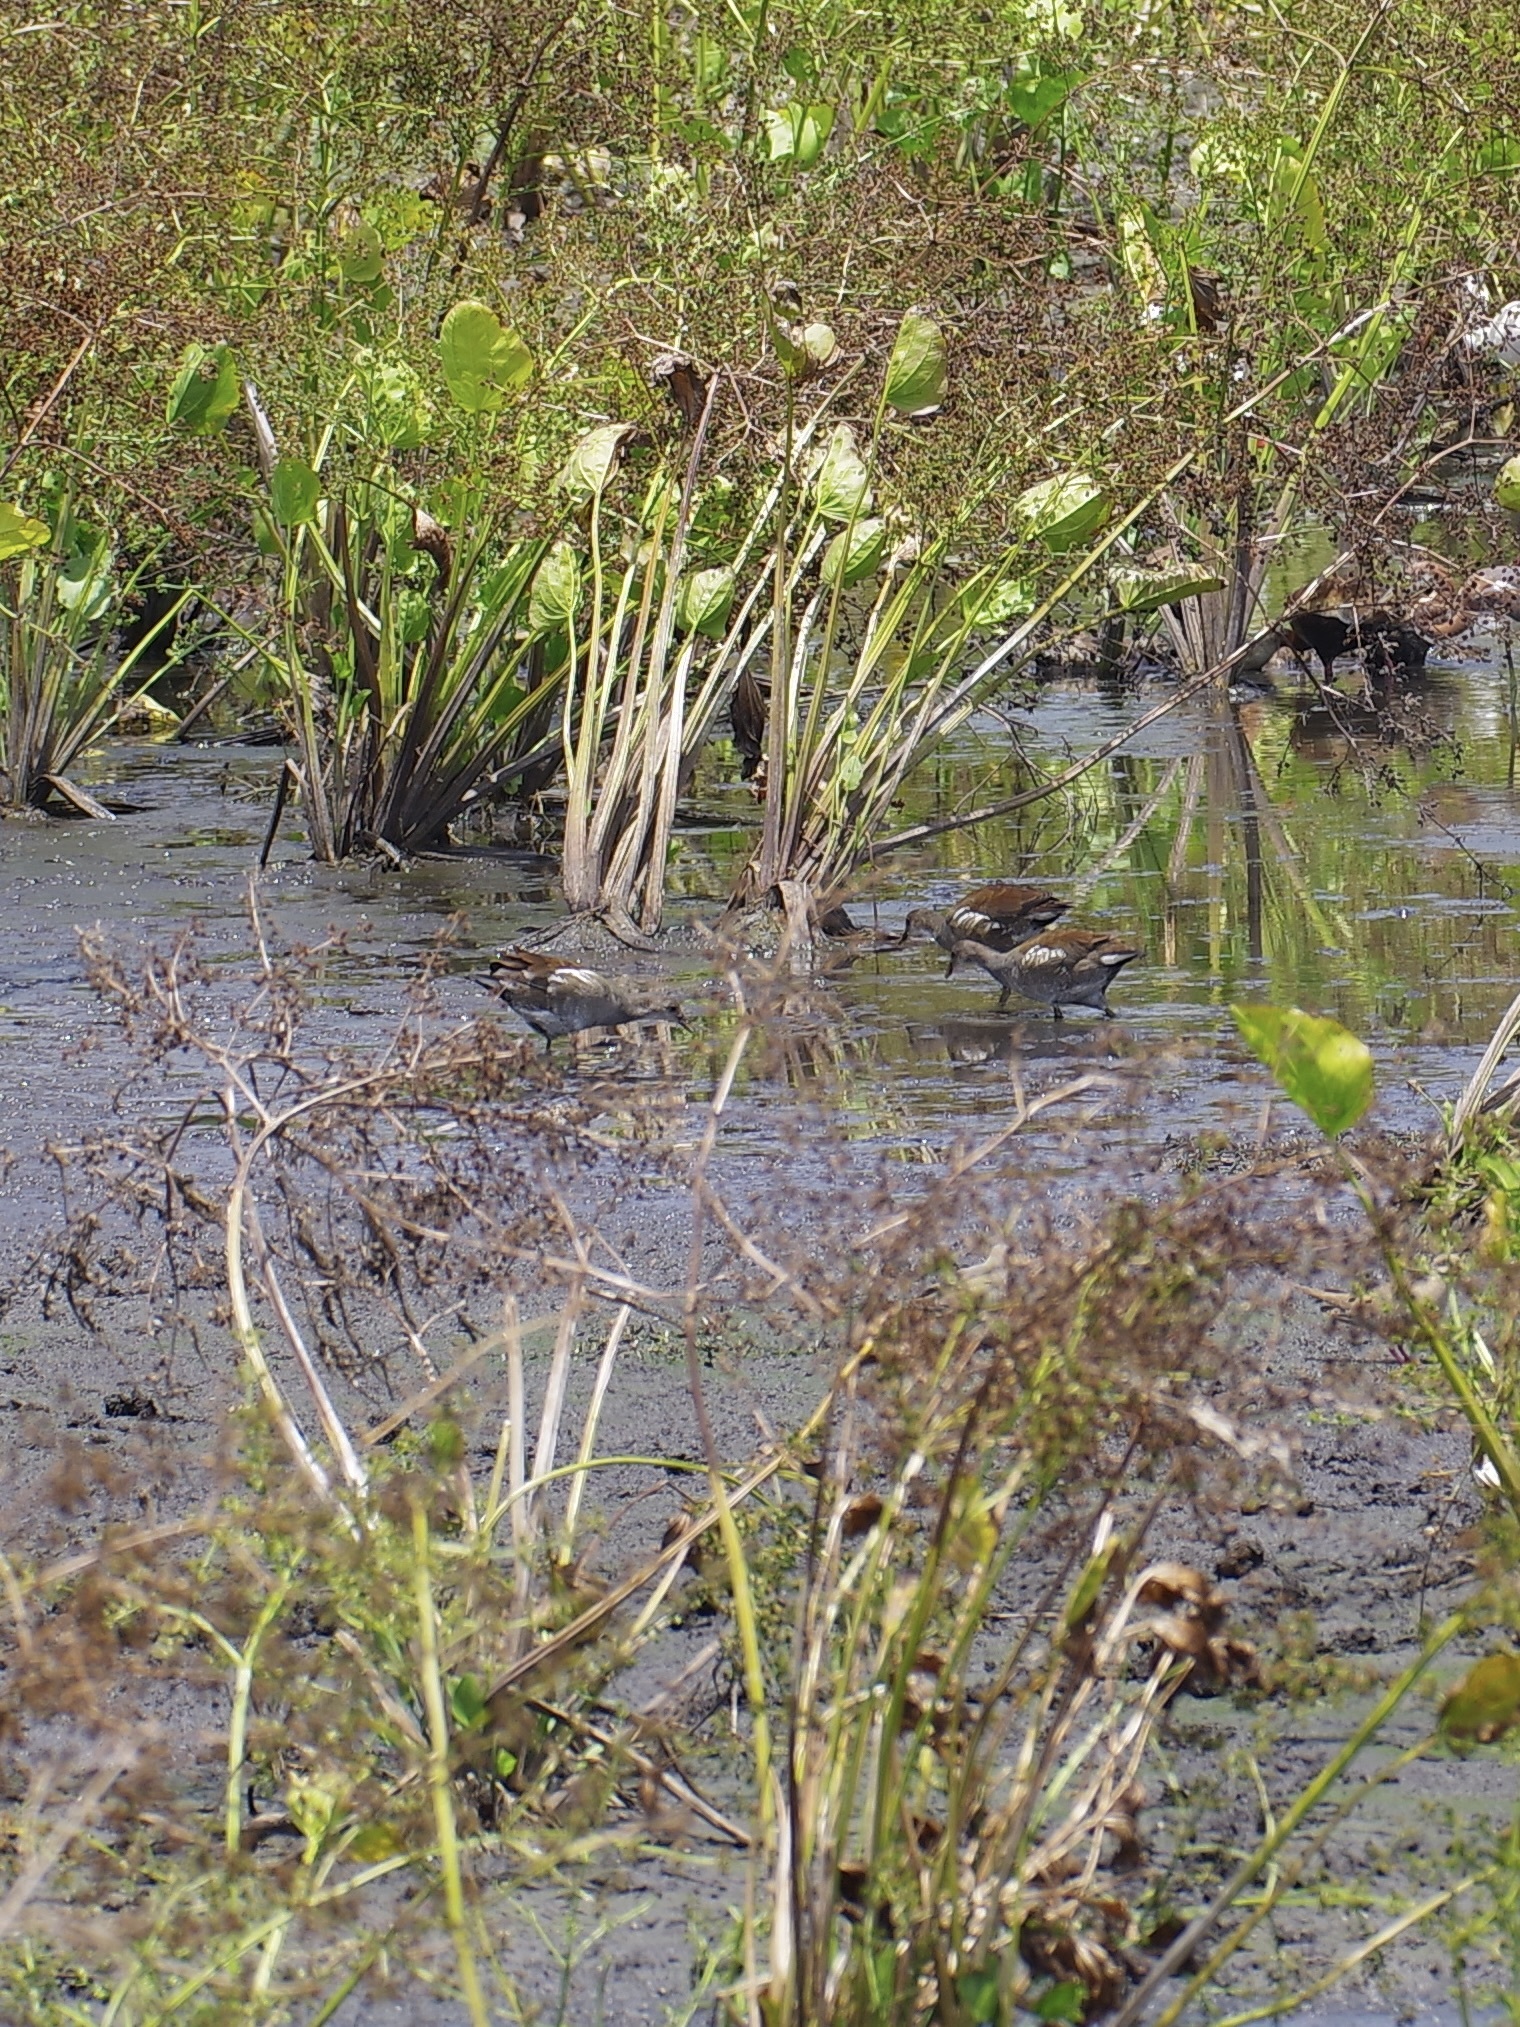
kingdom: Animalia
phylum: Chordata
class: Aves
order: Gruiformes
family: Rallidae
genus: Gallinula
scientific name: Gallinula chloropus
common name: Common moorhen
